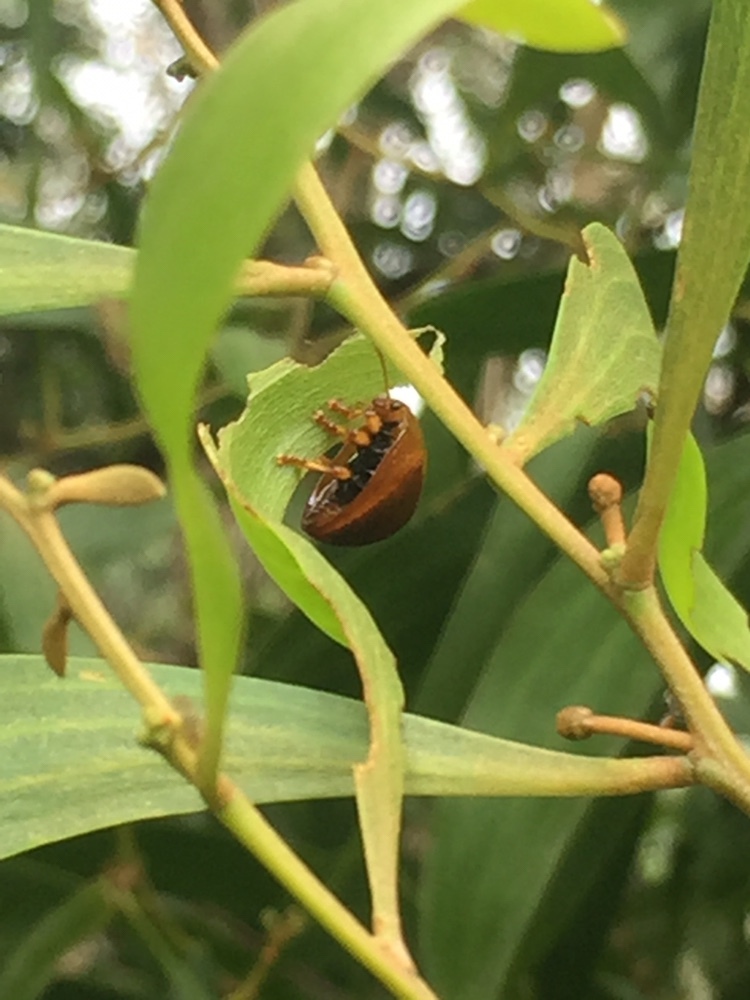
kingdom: Animalia
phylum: Arthropoda
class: Insecta
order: Coleoptera
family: Chrysomelidae
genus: Dicranosterna
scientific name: Dicranosterna
